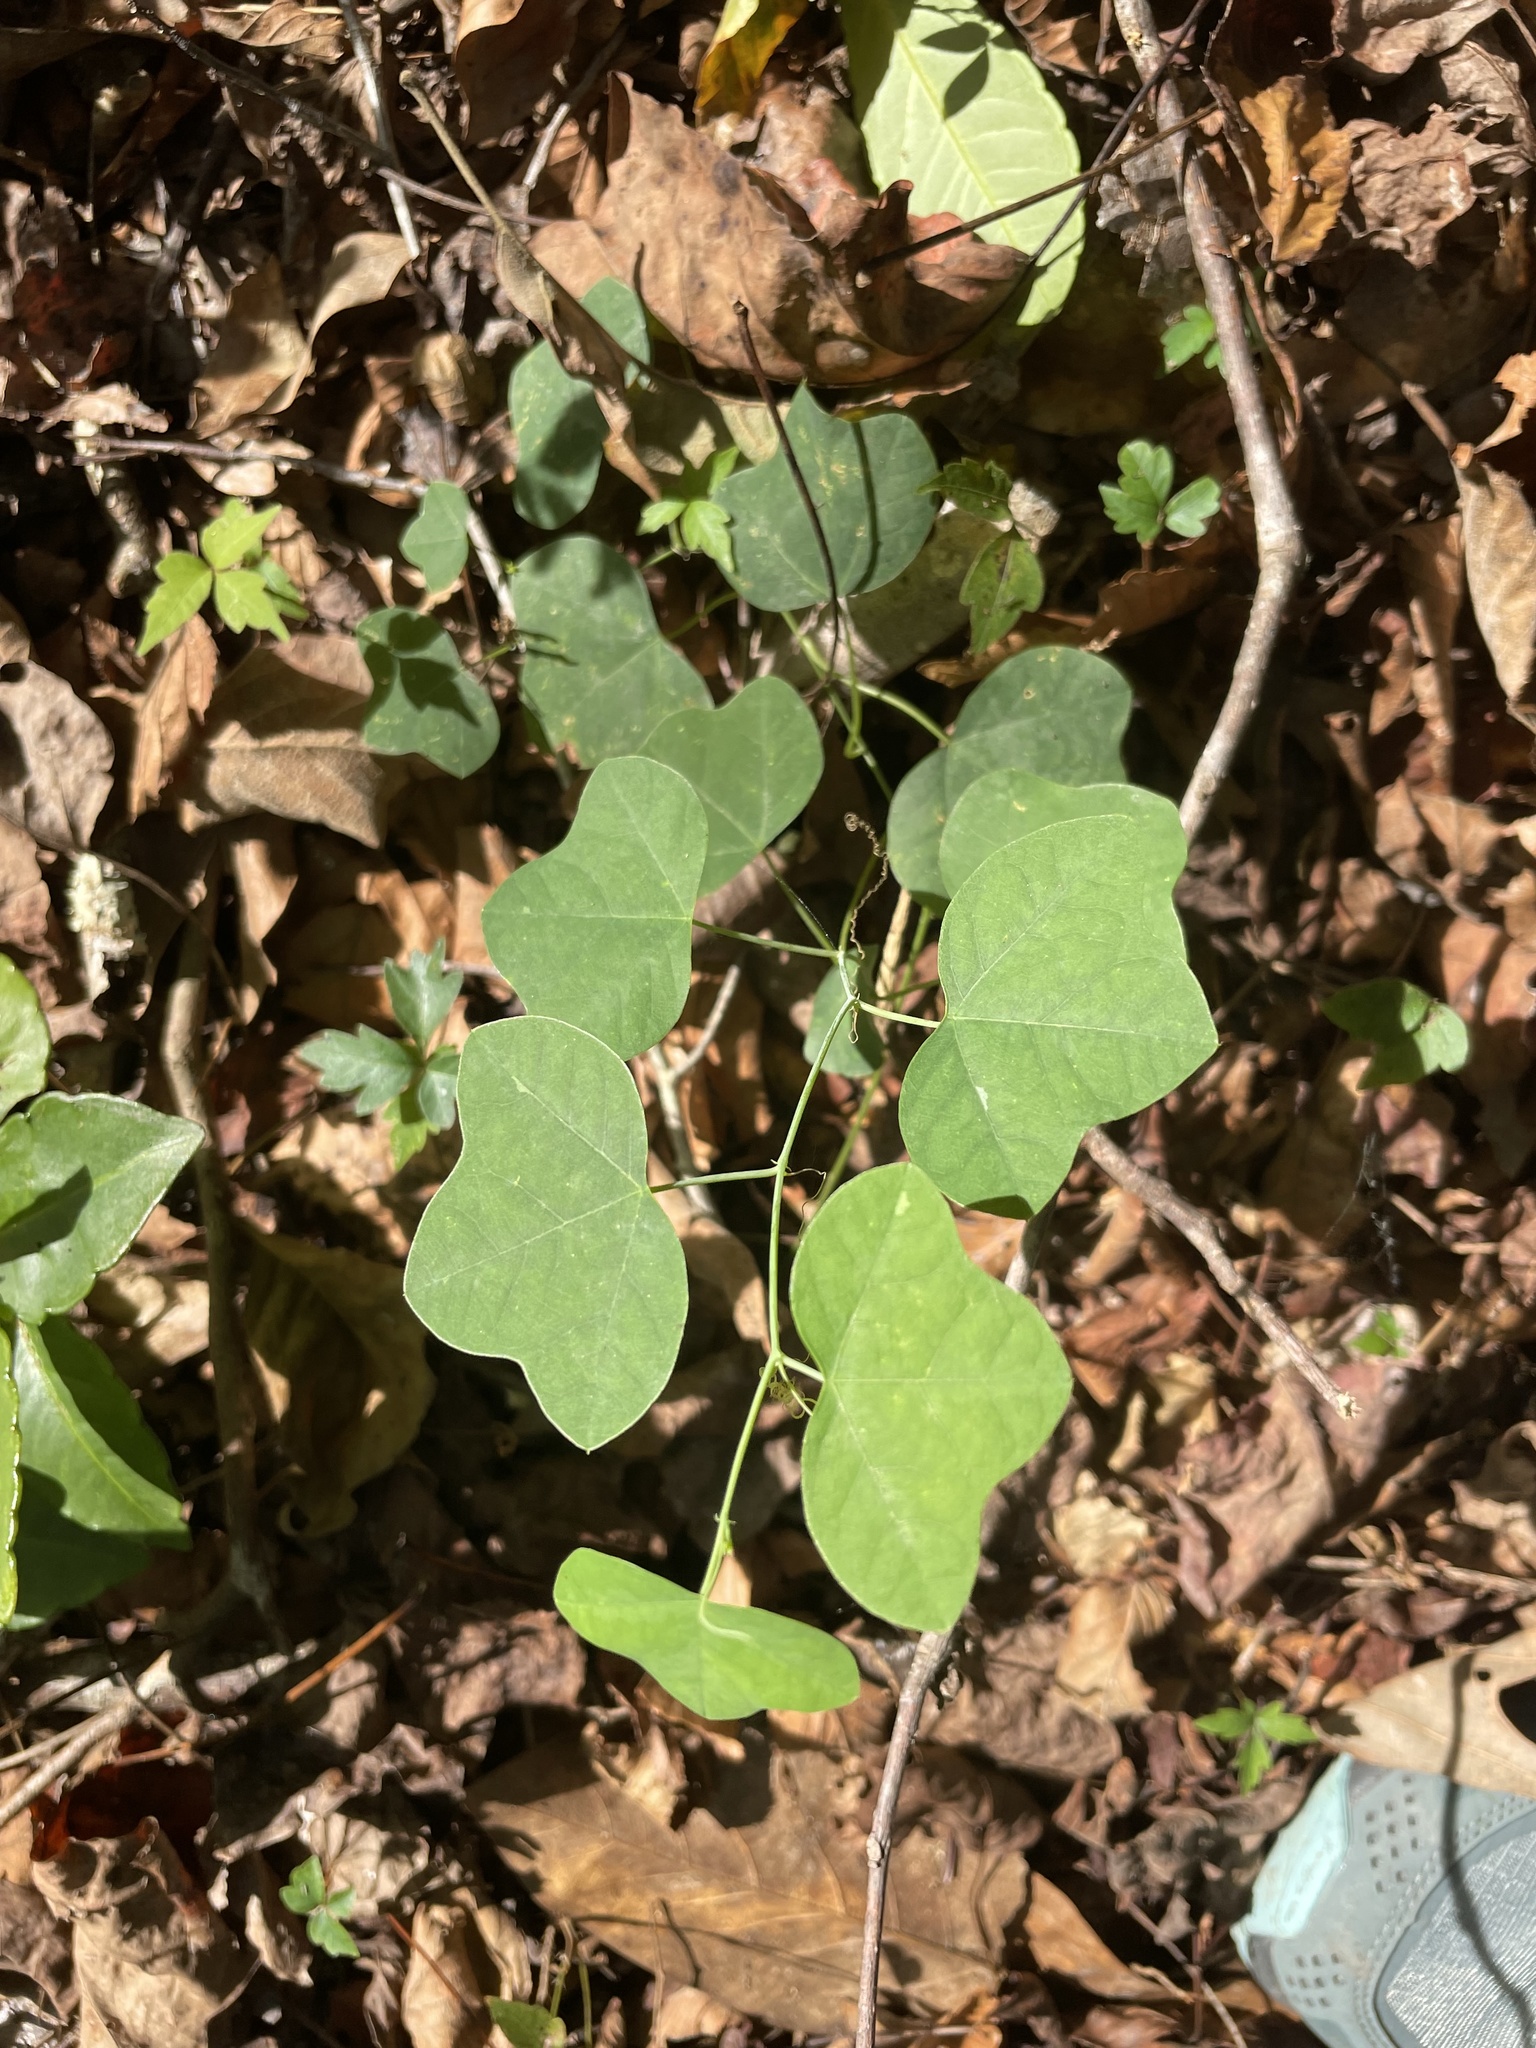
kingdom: Plantae
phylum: Tracheophyta
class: Magnoliopsida
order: Malpighiales
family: Passifloraceae
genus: Passiflora
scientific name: Passiflora lutea
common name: Yellow passionflower
